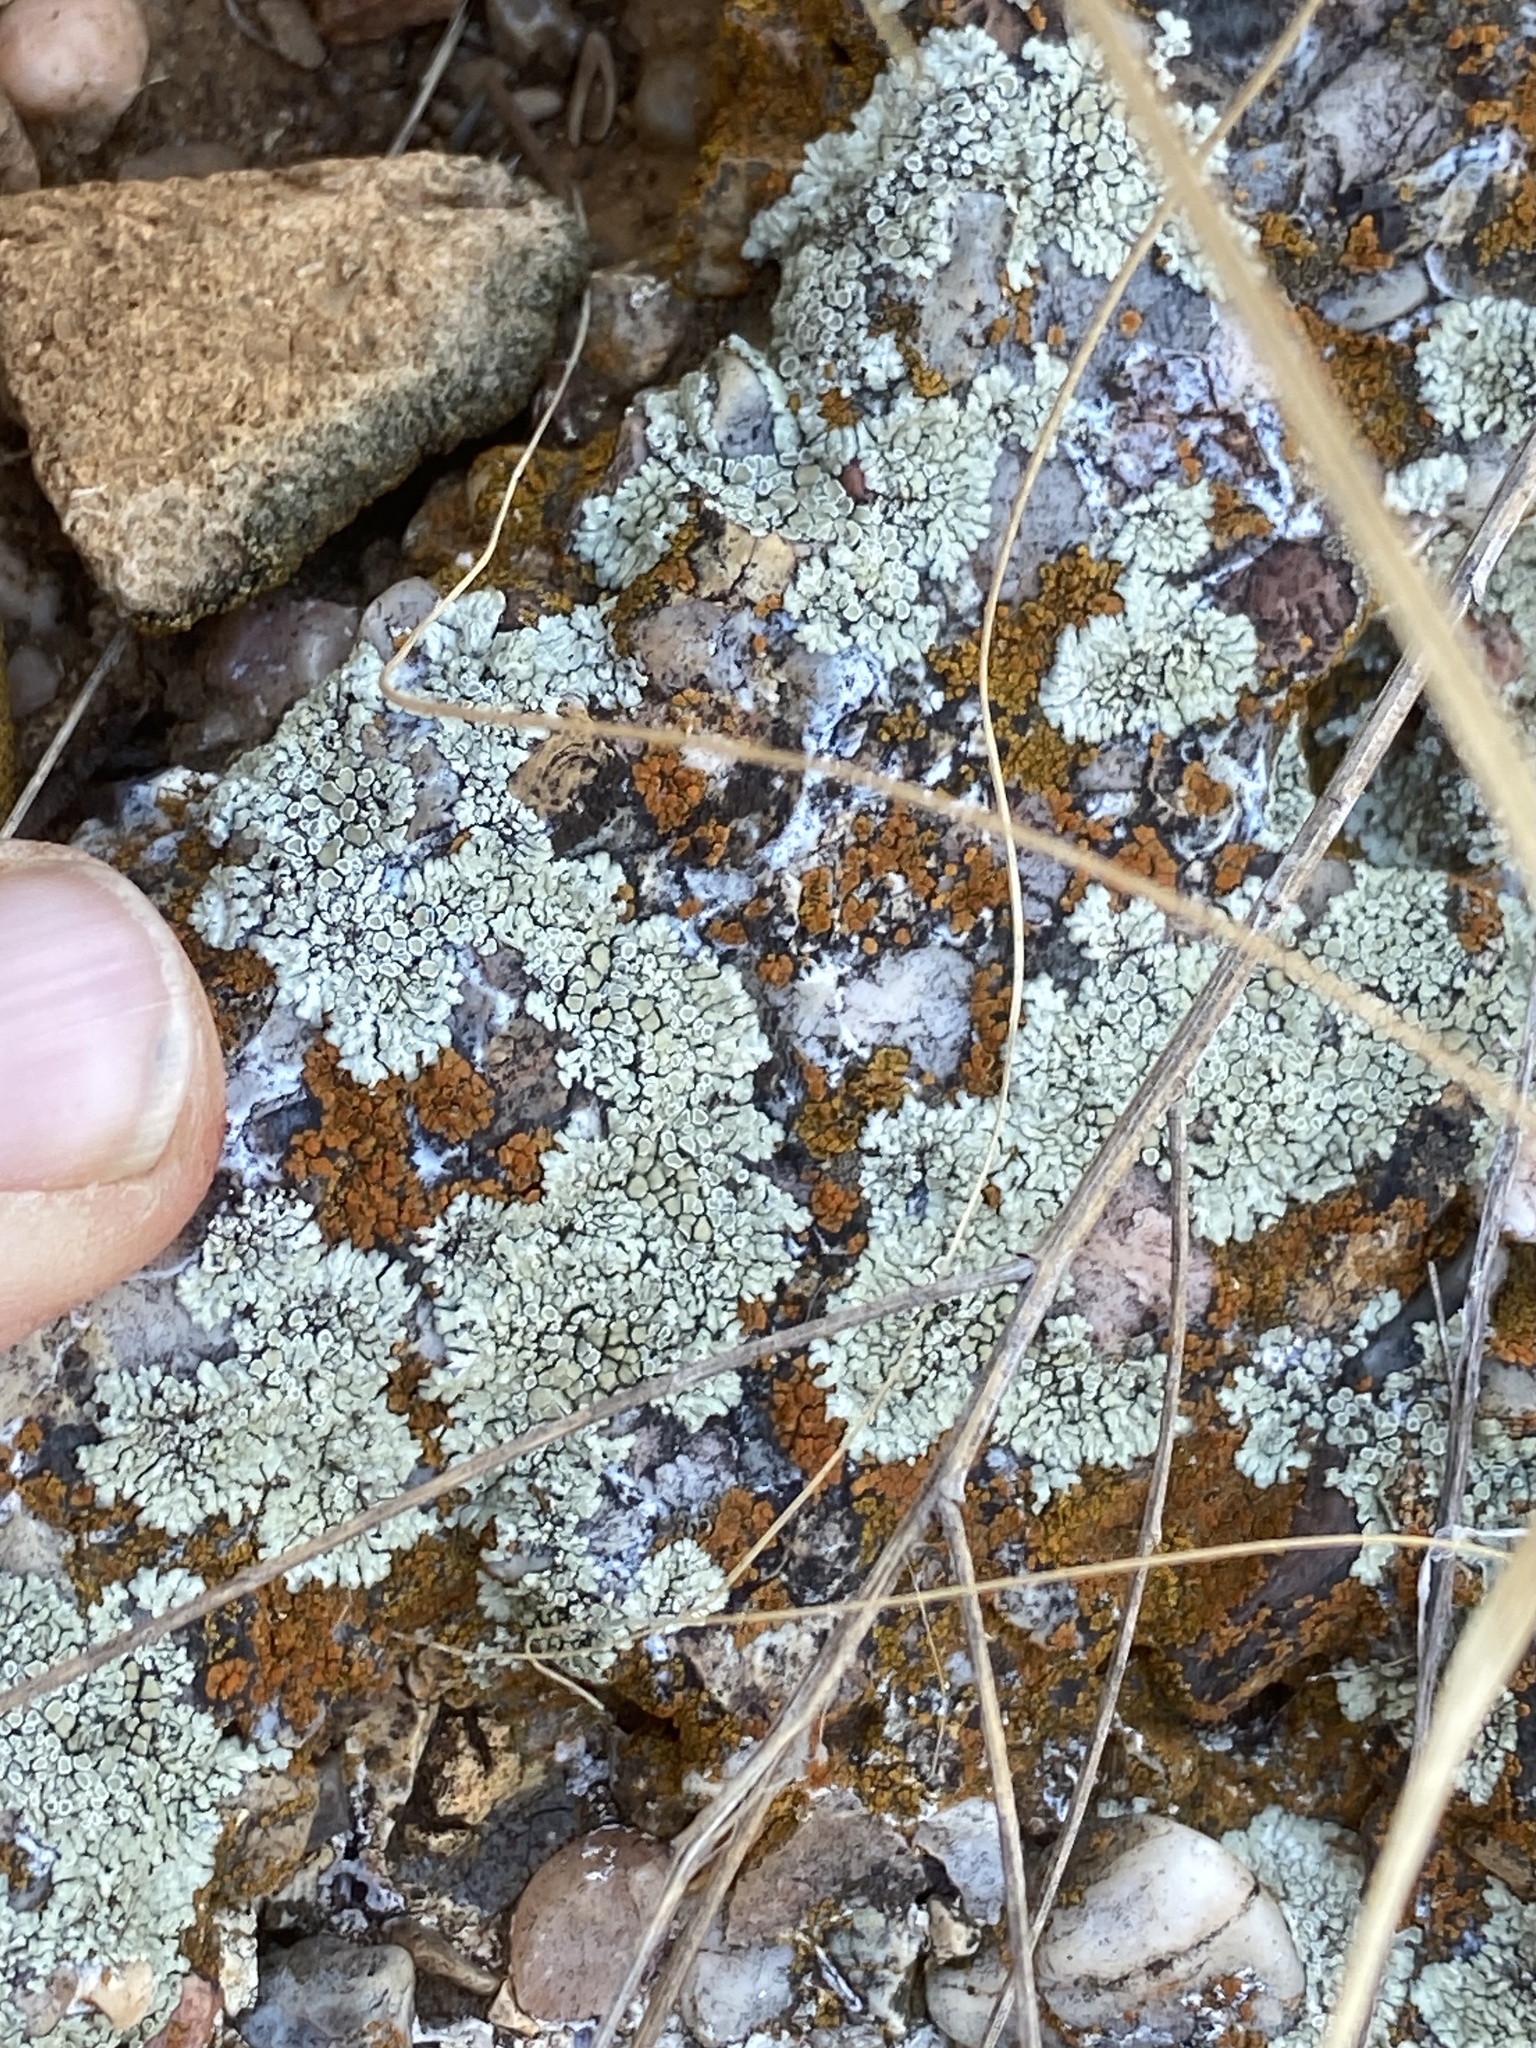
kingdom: Fungi
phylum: Ascomycota
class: Lecanoromycetes
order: Lecanorales
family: Lecanoraceae
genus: Protoparmeliopsis
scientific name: Protoparmeliopsis muralis
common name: Stonewall rim lichen
